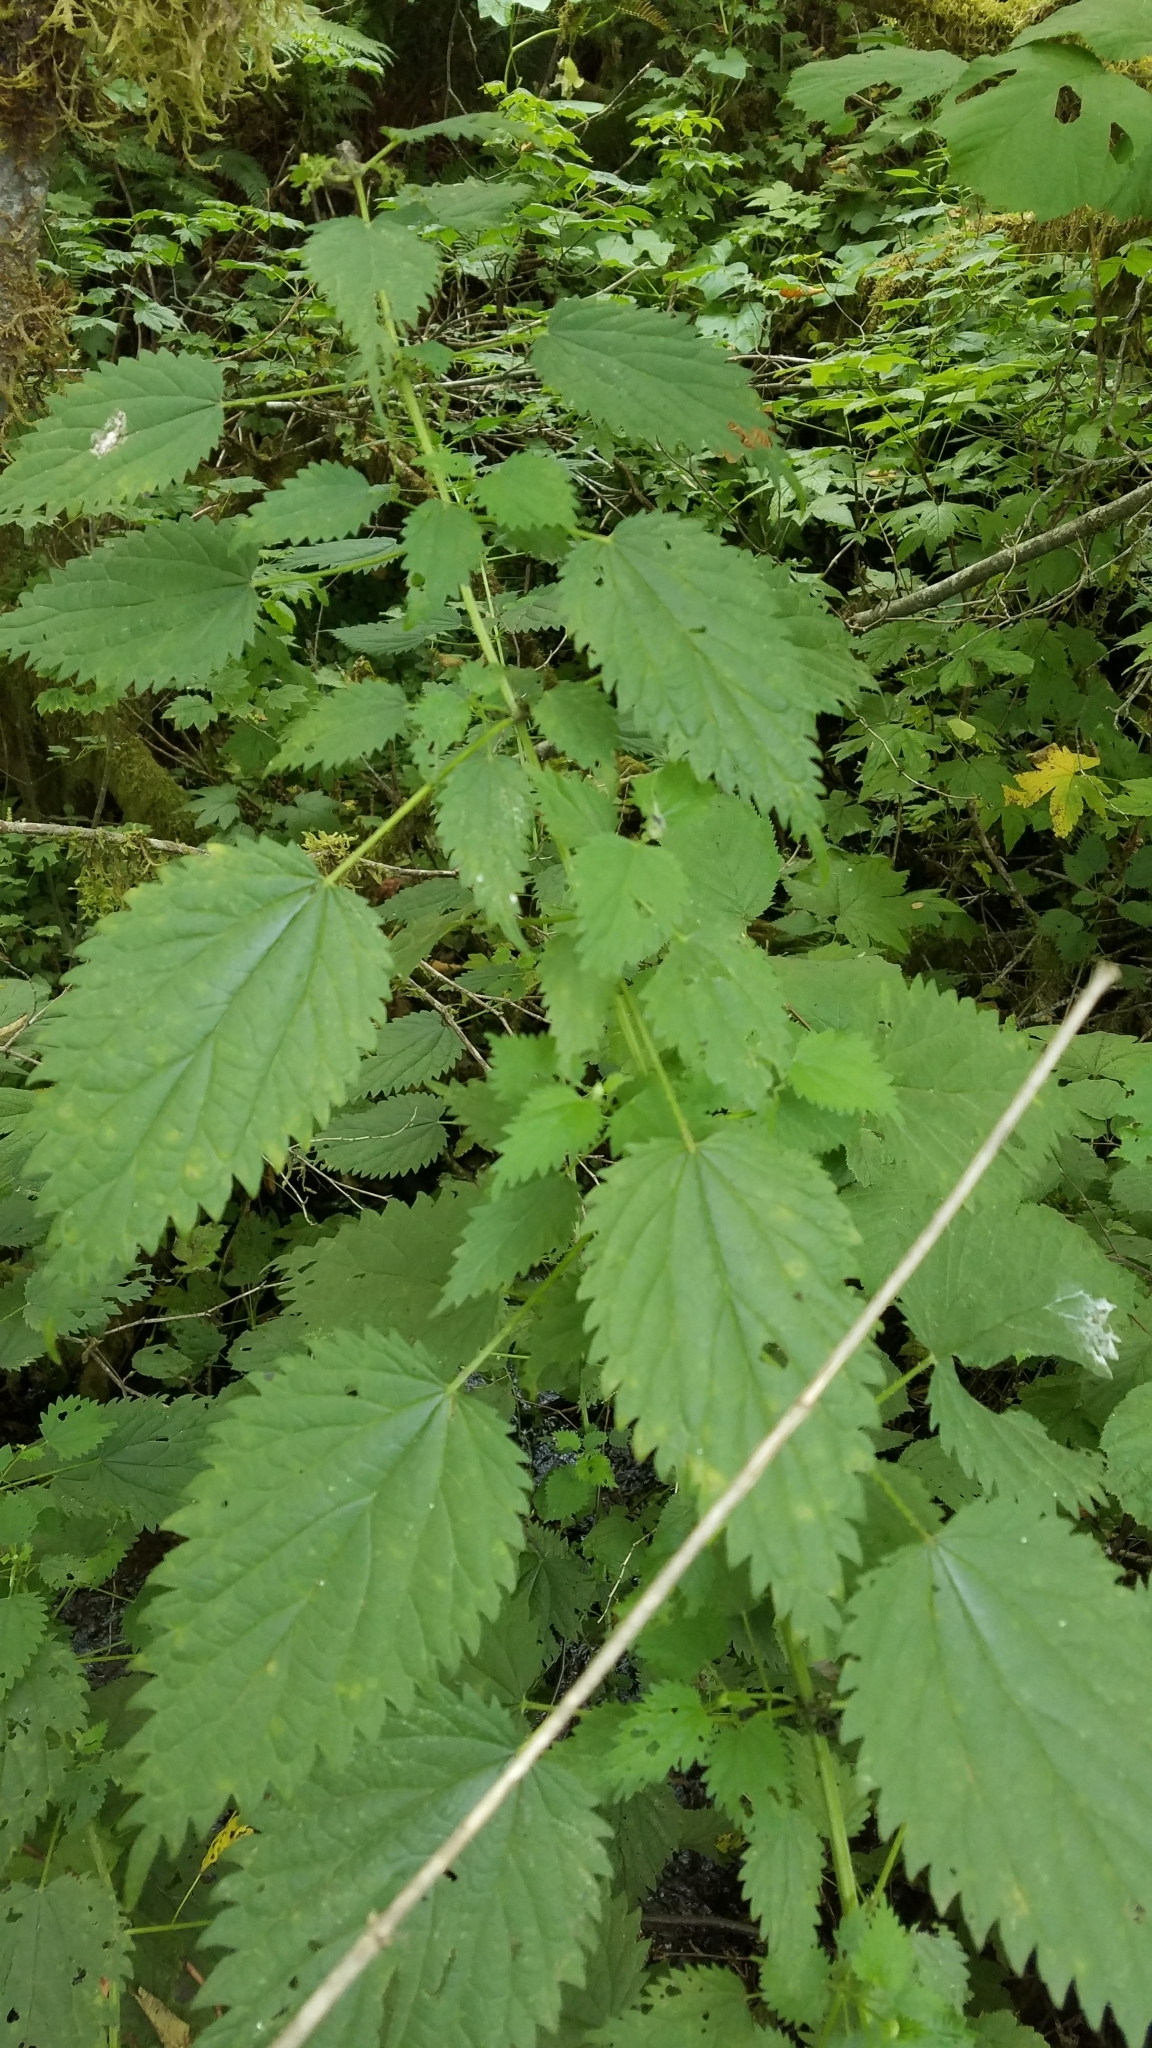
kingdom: Plantae
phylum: Tracheophyta
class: Magnoliopsida
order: Rosales
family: Urticaceae
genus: Urtica
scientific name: Urtica dioica
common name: Common nettle
